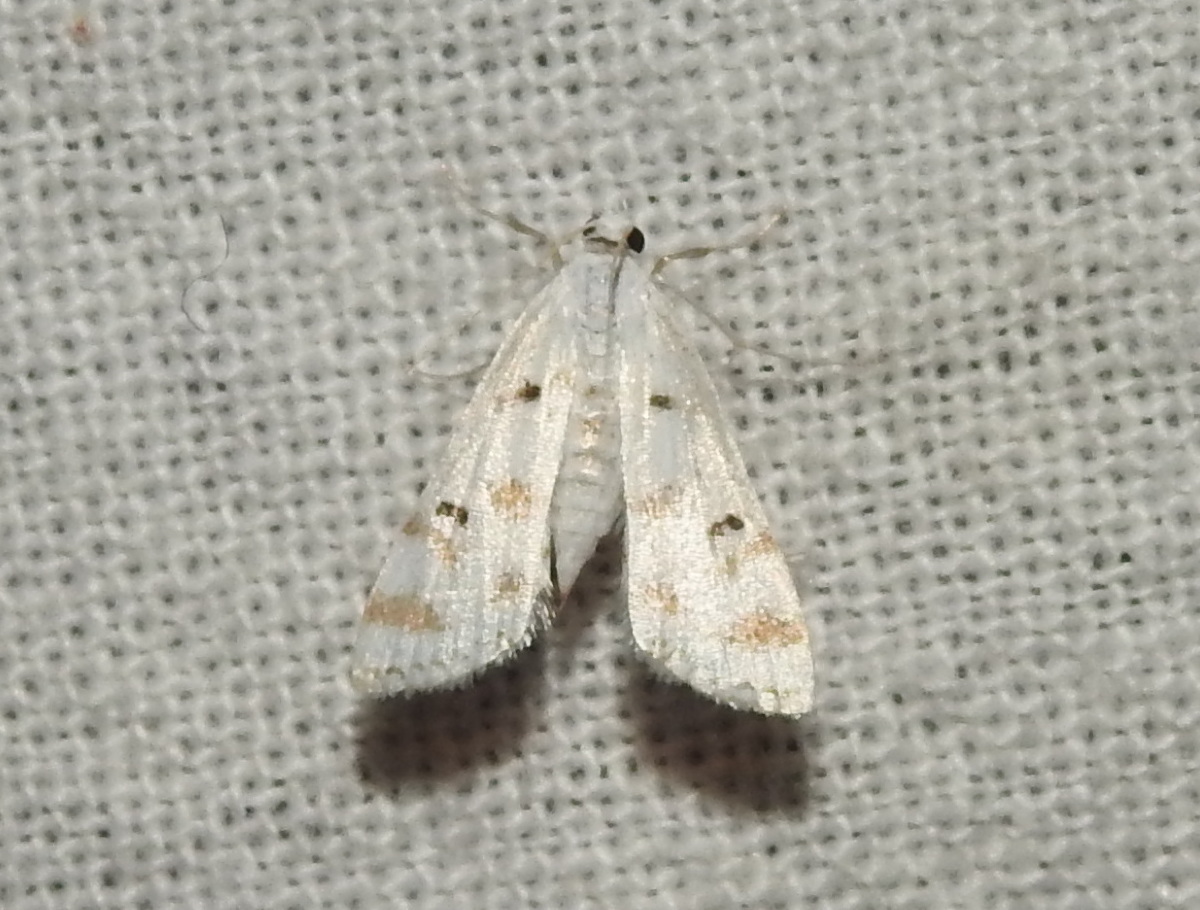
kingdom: Animalia
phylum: Arthropoda
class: Insecta
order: Lepidoptera
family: Crambidae
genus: Parapoynx
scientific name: Parapoynx stagnalis
